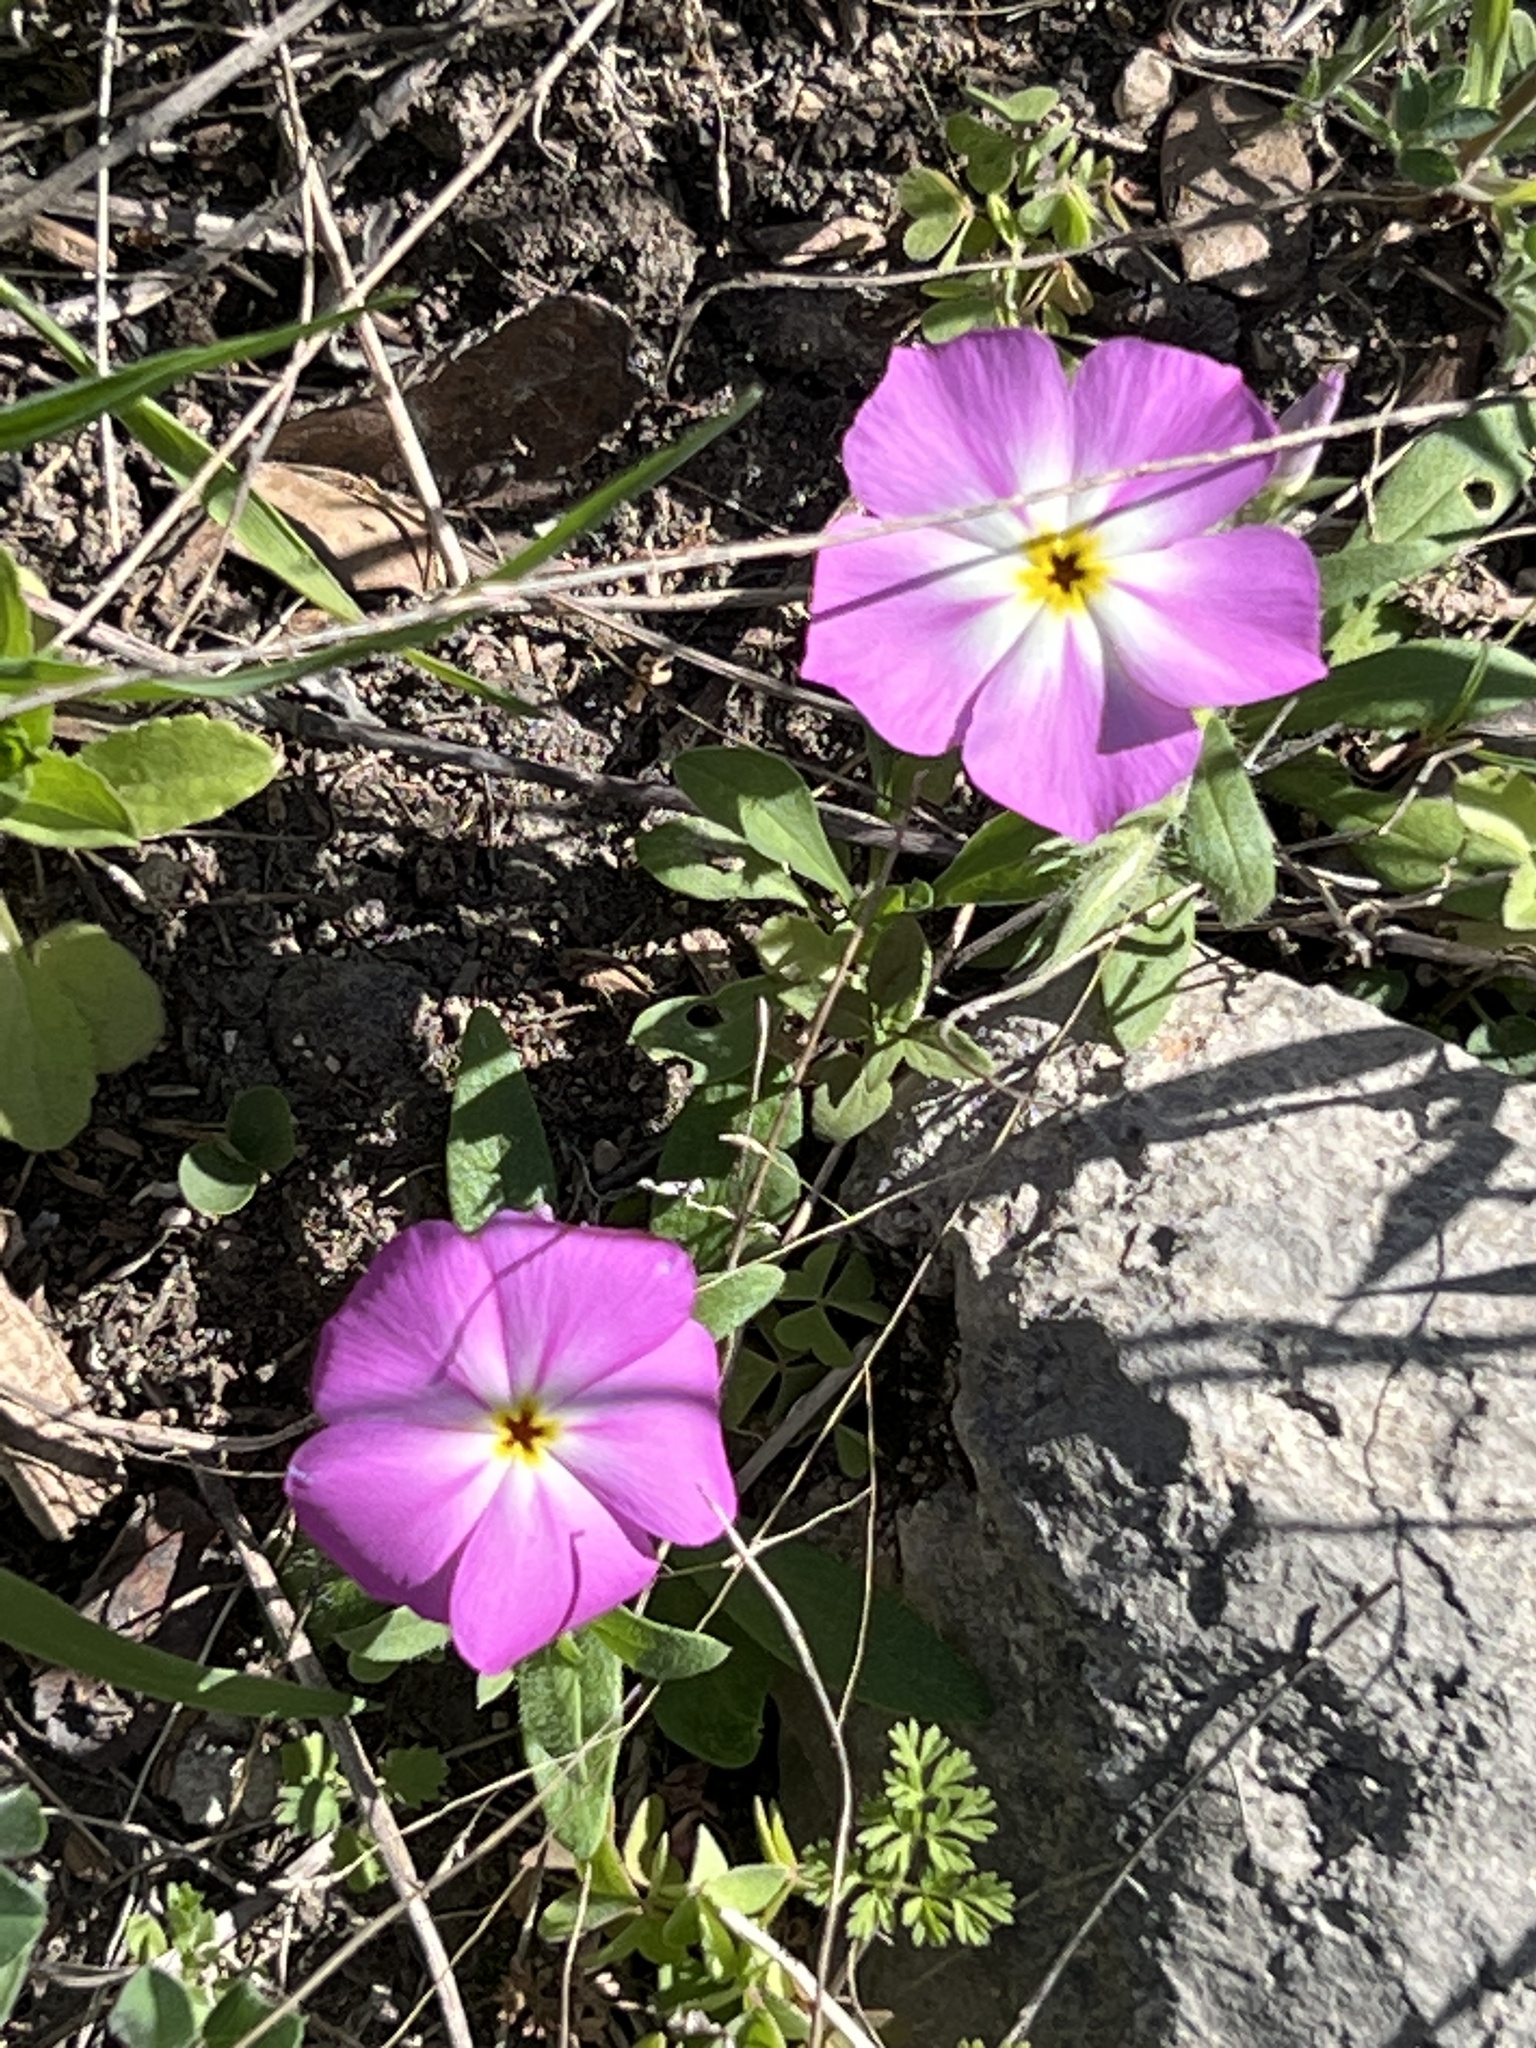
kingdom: Plantae
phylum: Tracheophyta
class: Magnoliopsida
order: Ericales
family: Polemoniaceae
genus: Phlox
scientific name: Phlox roemeriana
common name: Roemer's phlox
